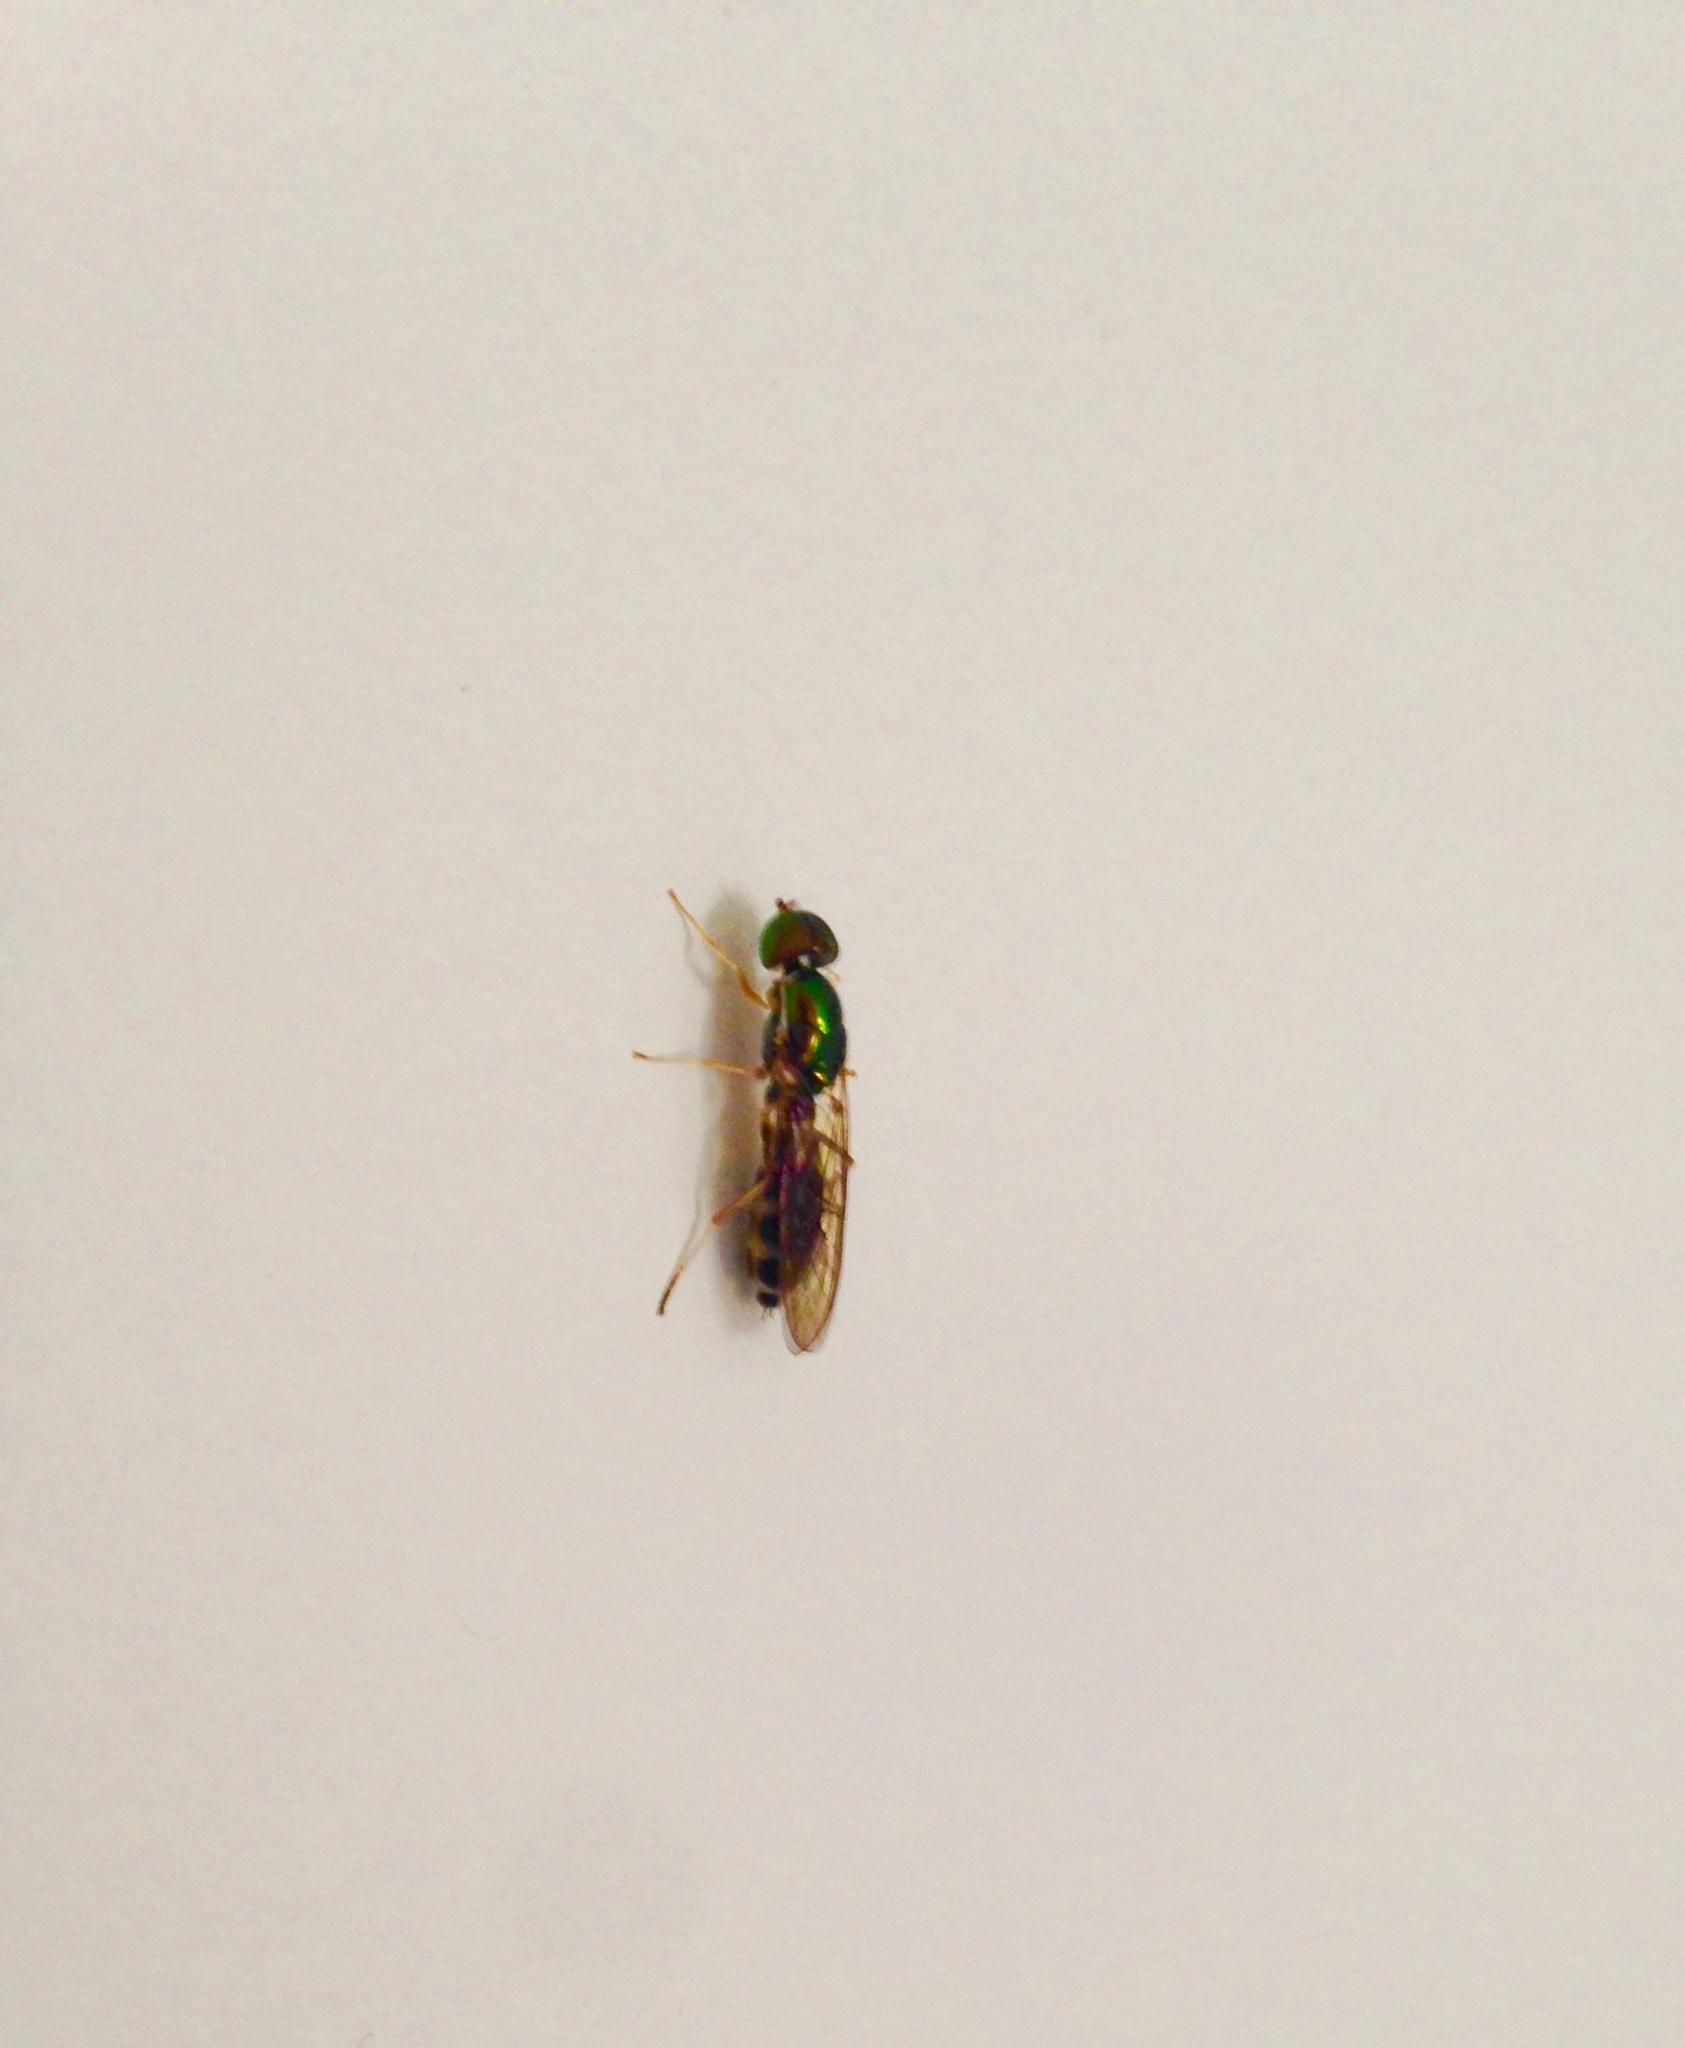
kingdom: Animalia
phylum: Arthropoda
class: Insecta
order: Diptera
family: Stratiomyidae
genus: Sargus
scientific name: Sargus fasciatus
